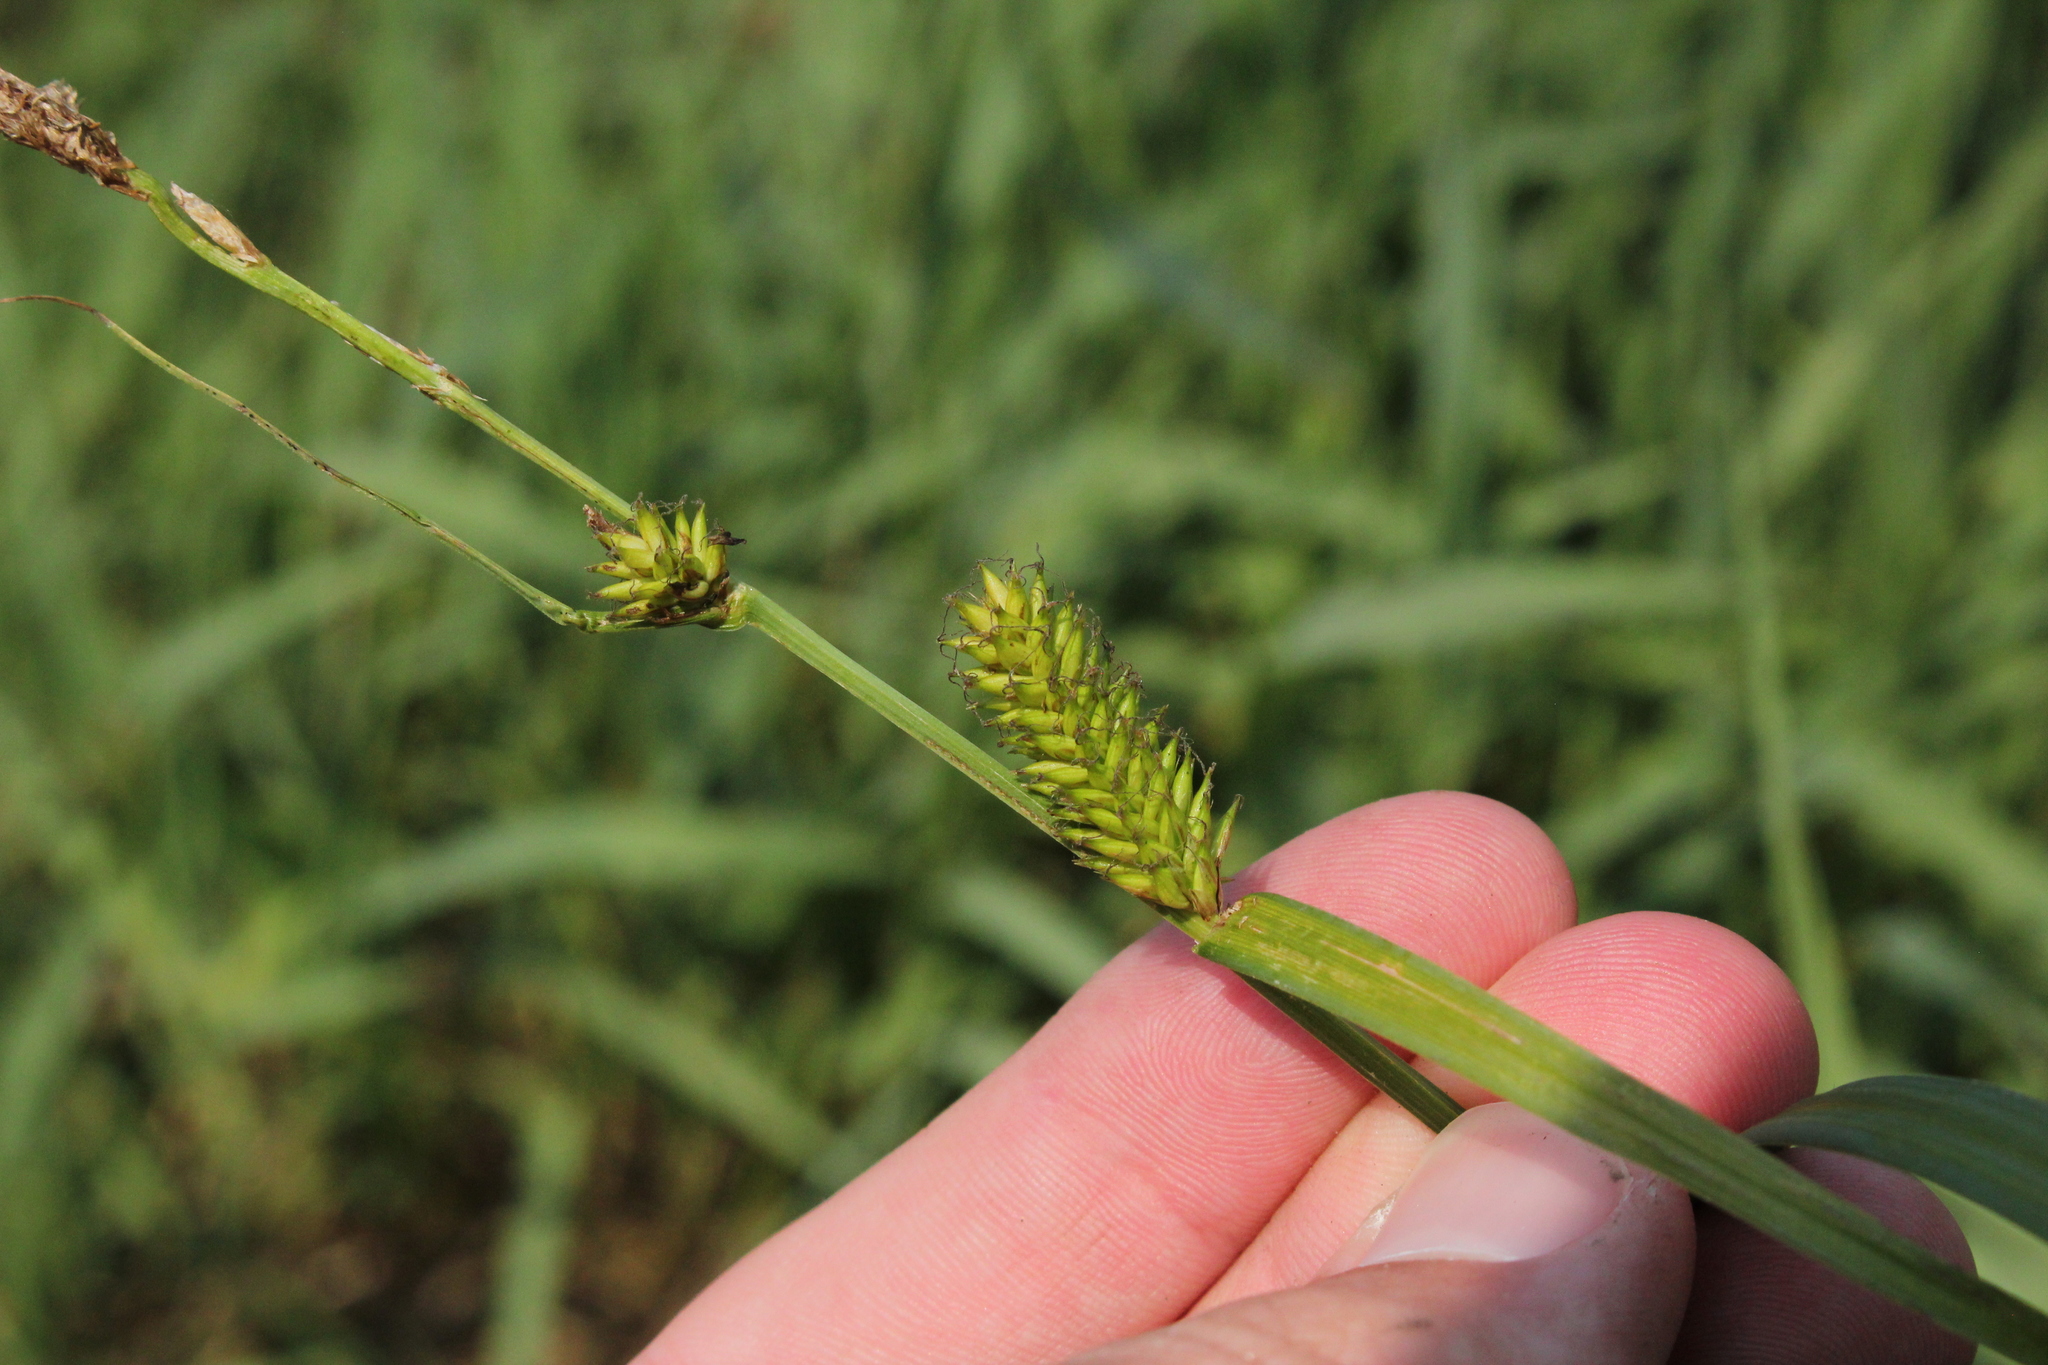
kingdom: Plantae
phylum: Tracheophyta
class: Liliopsida
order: Poales
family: Cyperaceae
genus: Carex
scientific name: Carex lacustris
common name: Common lake sedge
